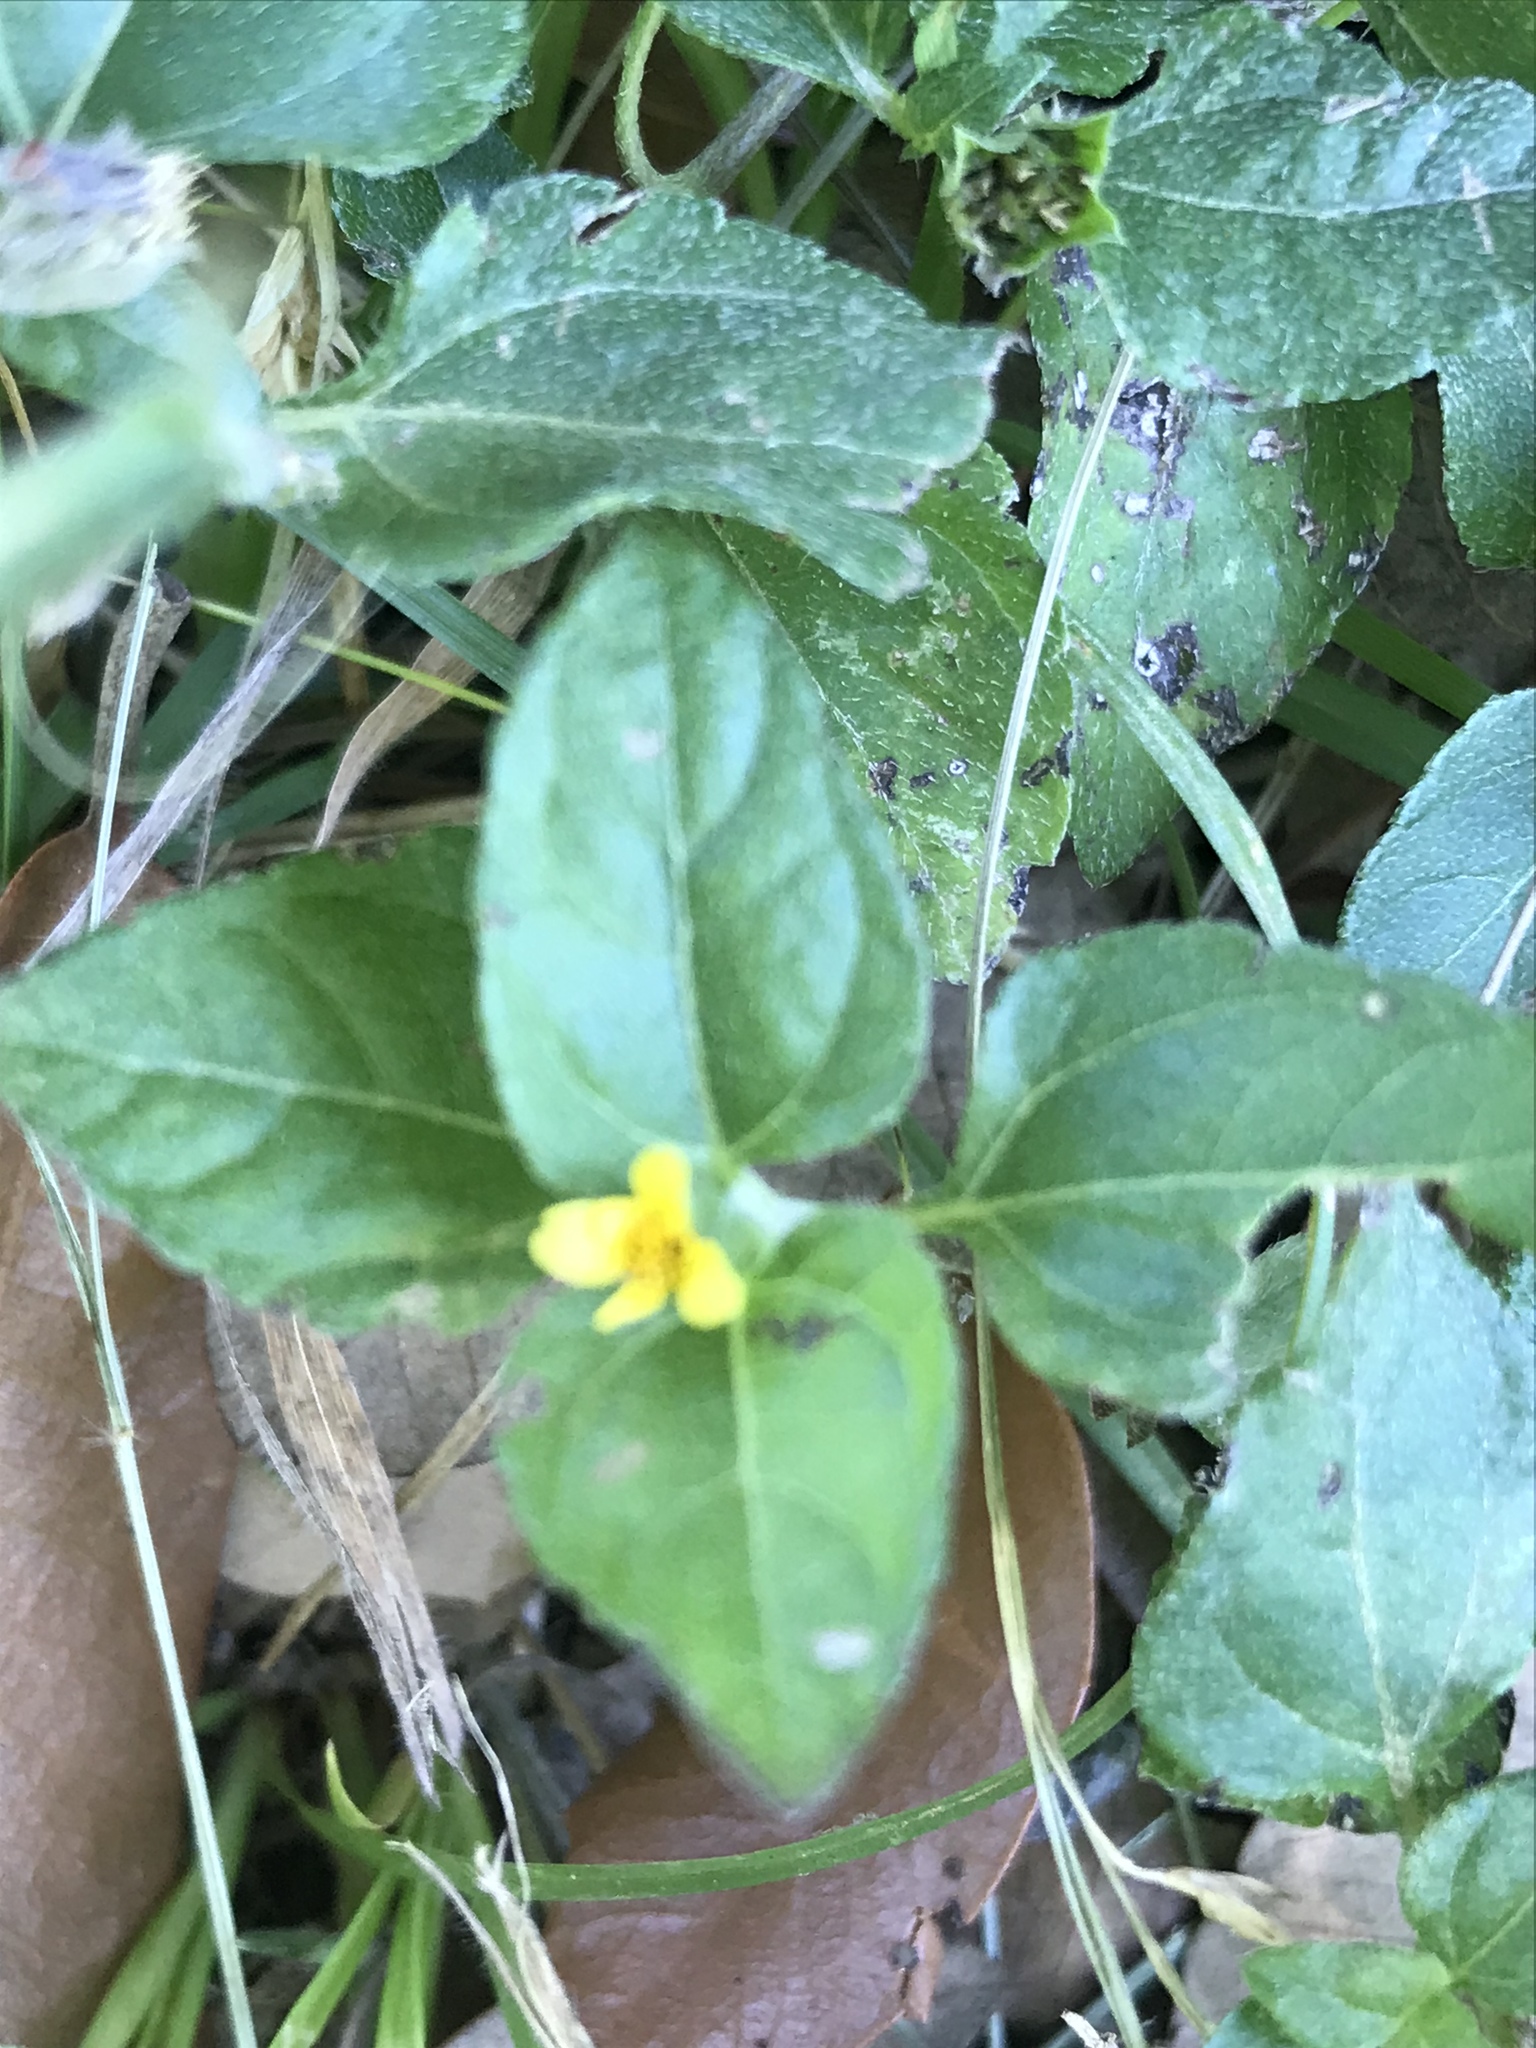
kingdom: Plantae
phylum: Tracheophyta
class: Magnoliopsida
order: Asterales
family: Asteraceae
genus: Calyptocarpus
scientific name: Calyptocarpus vialis
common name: Straggler daisy
